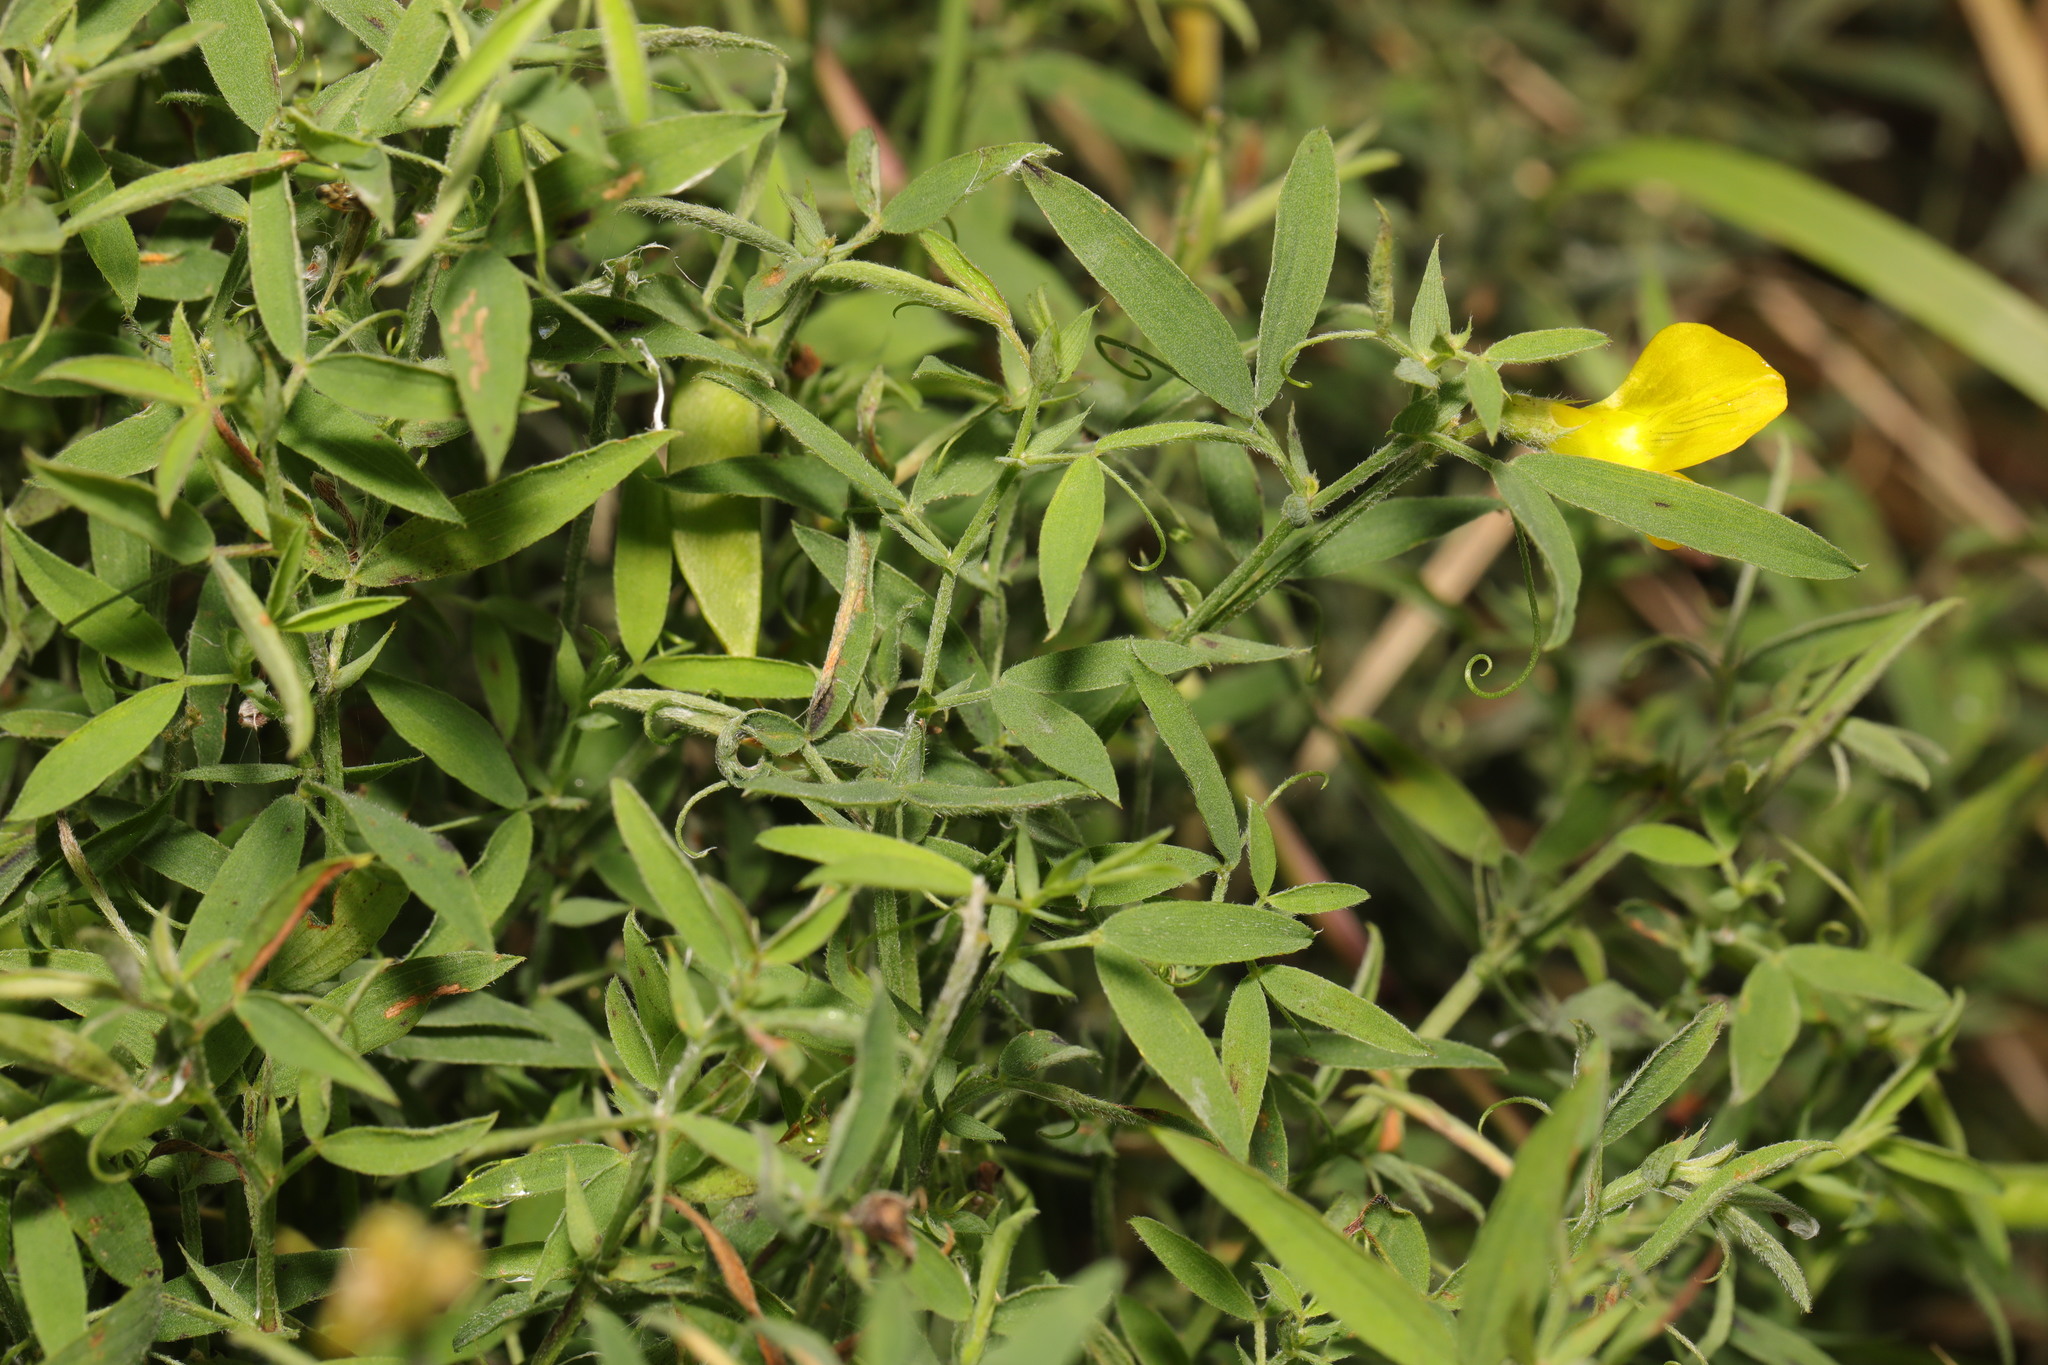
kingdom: Plantae
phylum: Tracheophyta
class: Magnoliopsida
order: Fabales
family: Fabaceae
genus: Lathyrus
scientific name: Lathyrus pratensis
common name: Meadow vetchling
